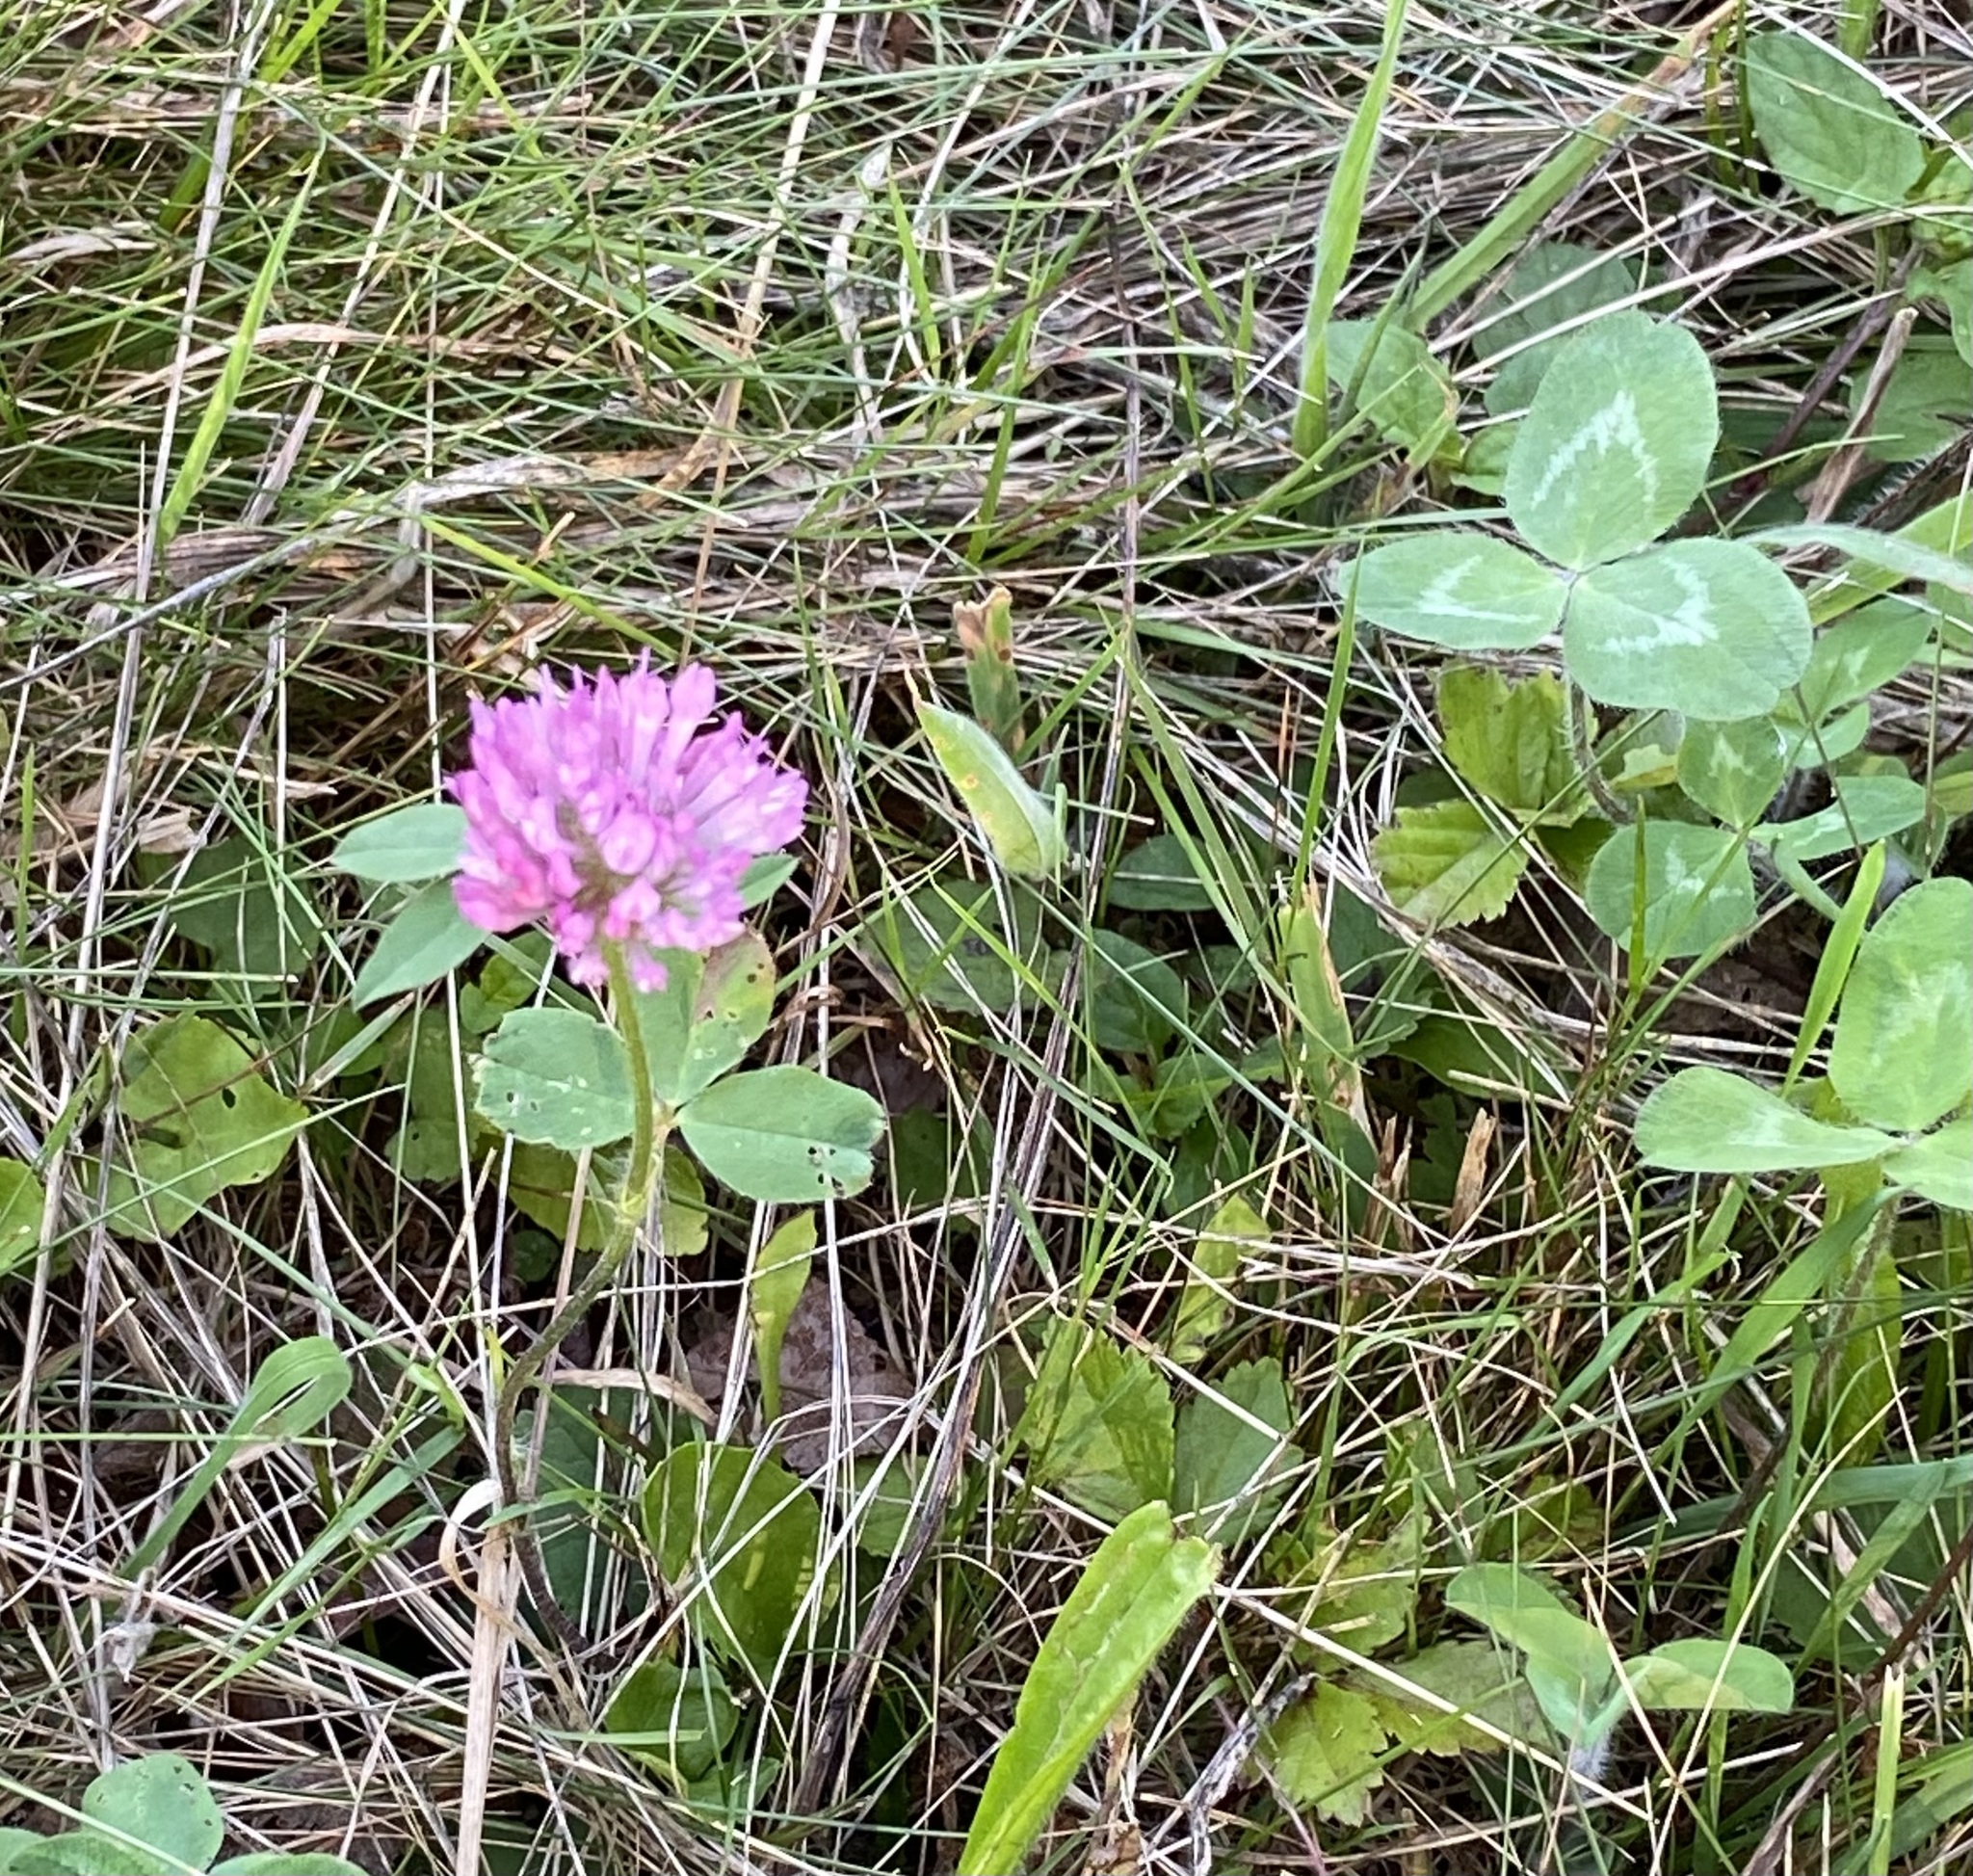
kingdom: Plantae
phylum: Tracheophyta
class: Magnoliopsida
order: Fabales
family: Fabaceae
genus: Trifolium
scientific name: Trifolium pratense
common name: Red clover
